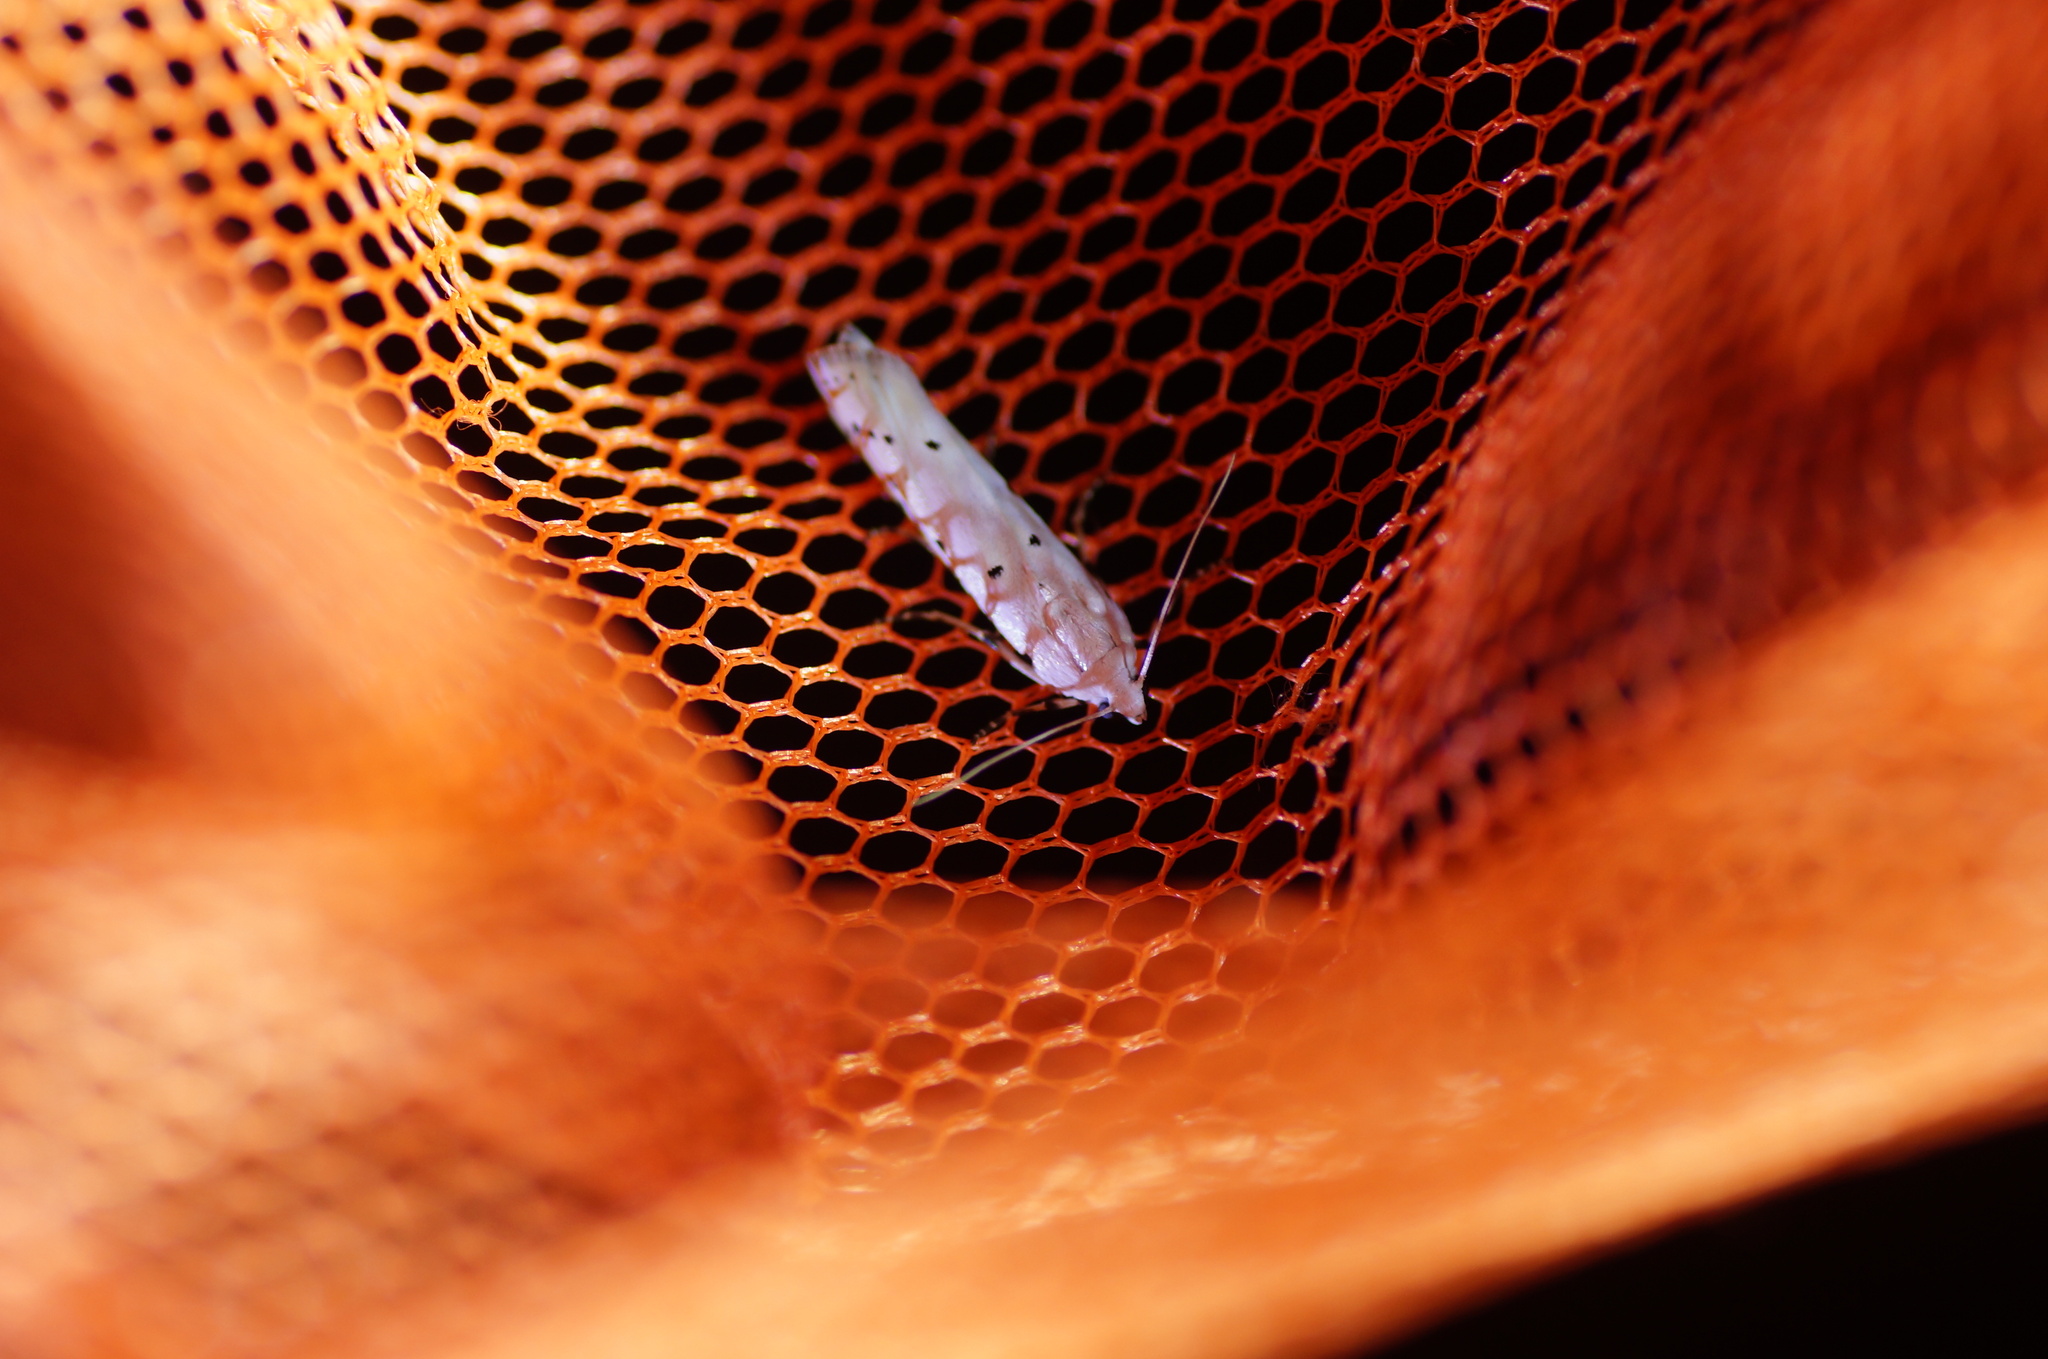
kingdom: Animalia
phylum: Arthropoda
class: Insecta
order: Lepidoptera
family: Pyralidae
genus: Myelois
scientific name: Myelois circumvoluta
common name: Thistle ermine
